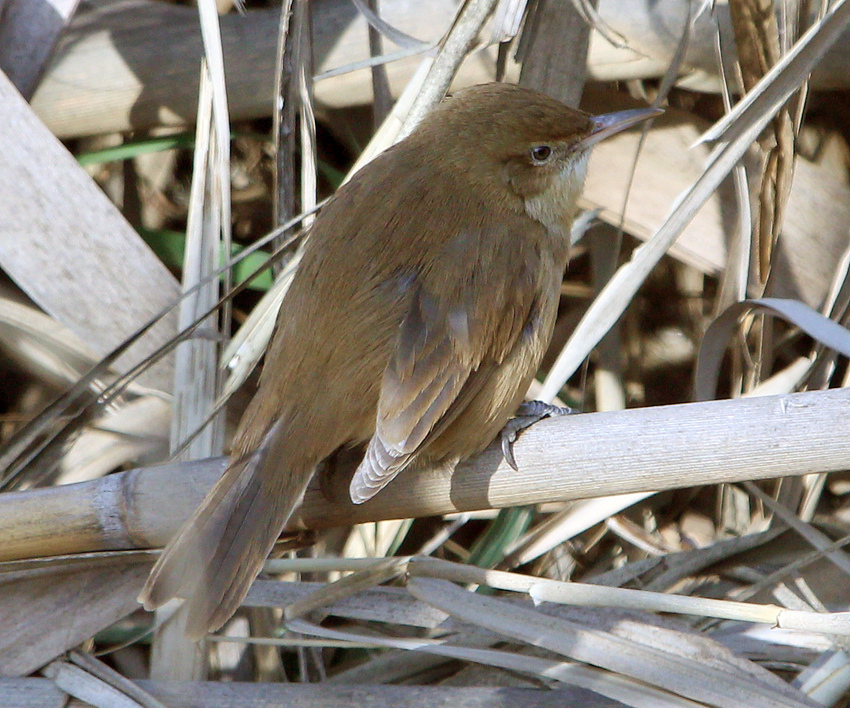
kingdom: Animalia
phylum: Chordata
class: Aves
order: Passeriformes
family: Acrocephalidae
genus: Acrocephalus
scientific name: Acrocephalus stentoreus
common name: Clamorous reed warbler
